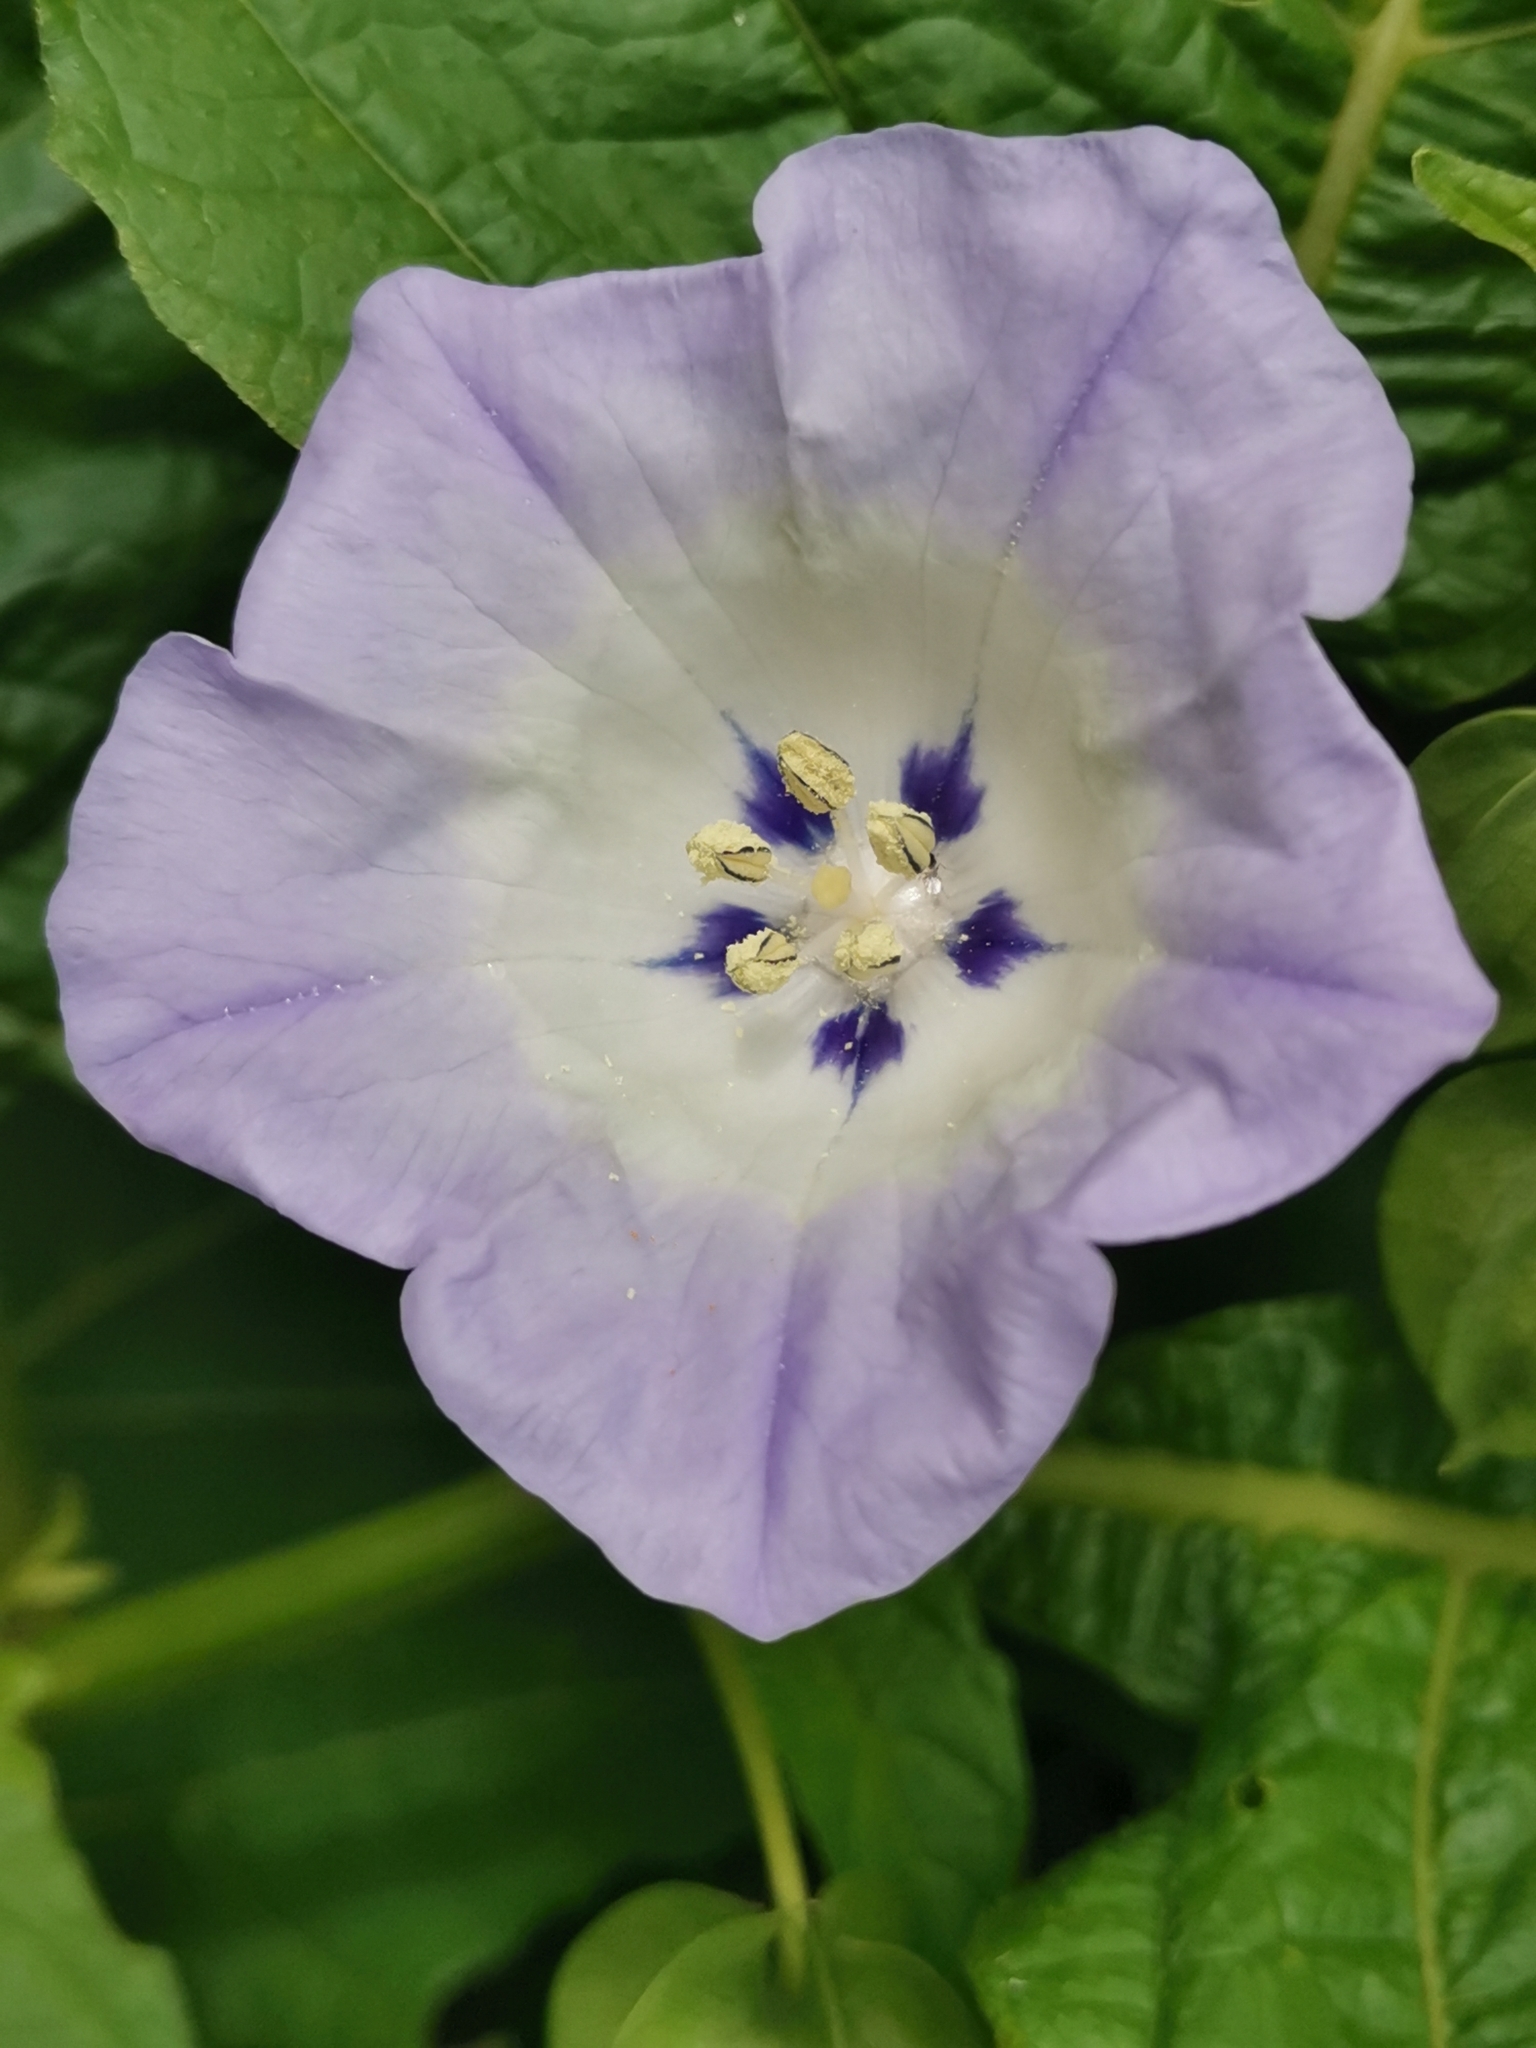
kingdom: Plantae
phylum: Tracheophyta
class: Magnoliopsida
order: Solanales
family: Solanaceae
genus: Nicandra
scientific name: Nicandra physalodes
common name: Apple-of-peru
